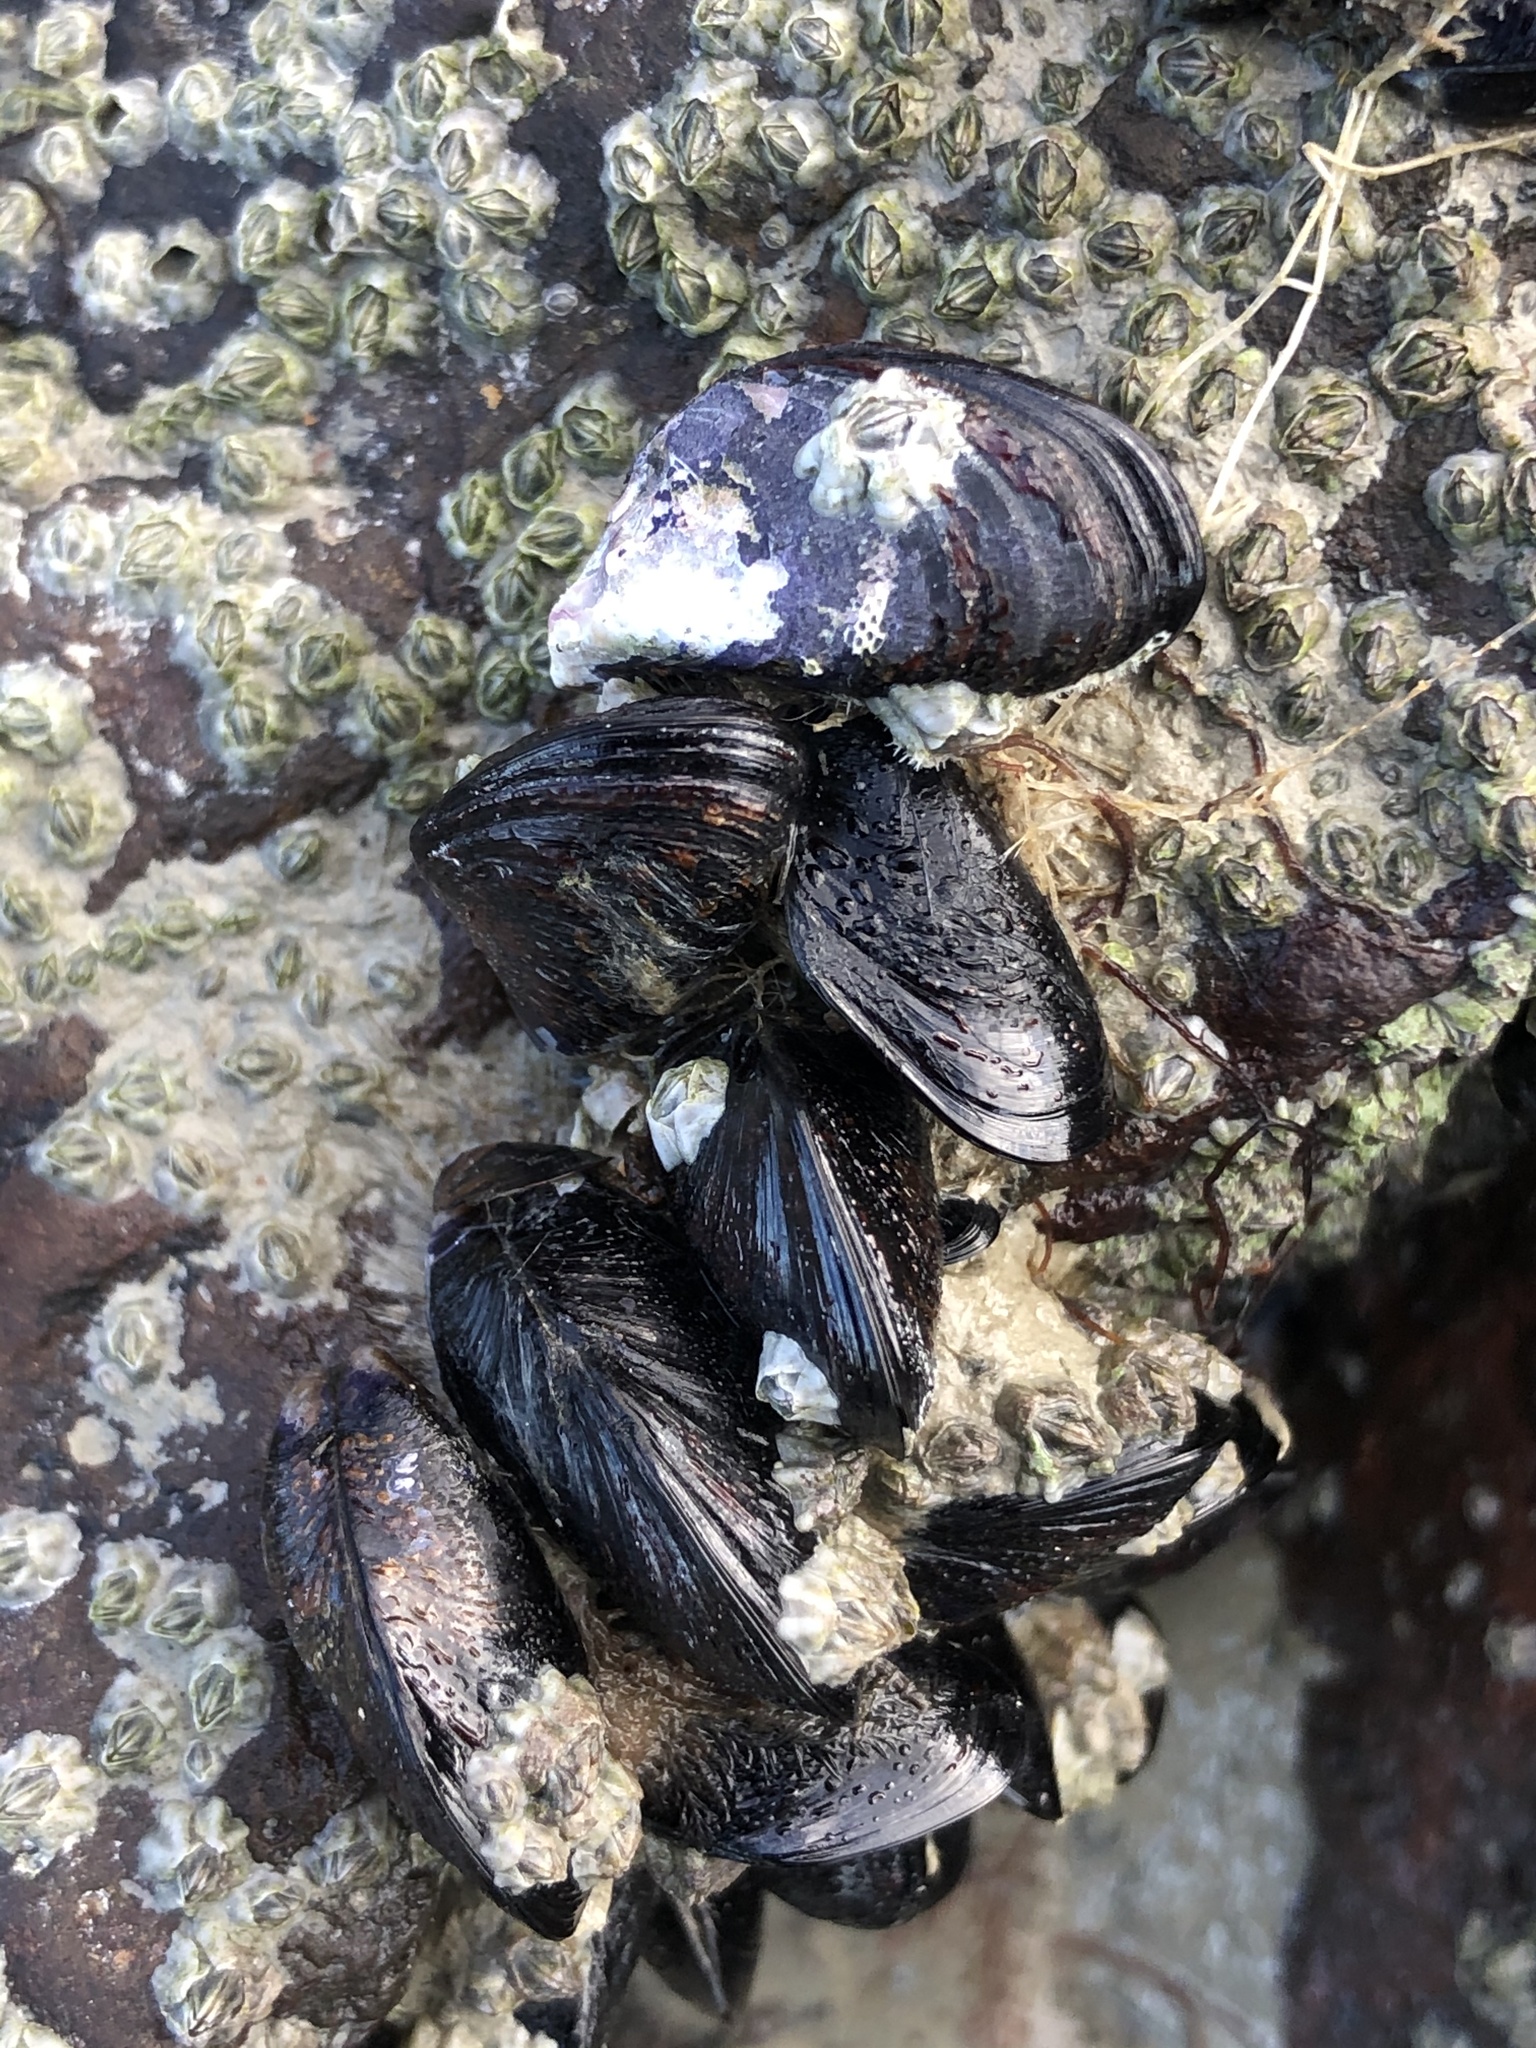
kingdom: Animalia
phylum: Mollusca
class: Bivalvia
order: Mytilida
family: Mytilidae
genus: Xenostrobus
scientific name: Xenostrobus neozelanicus
